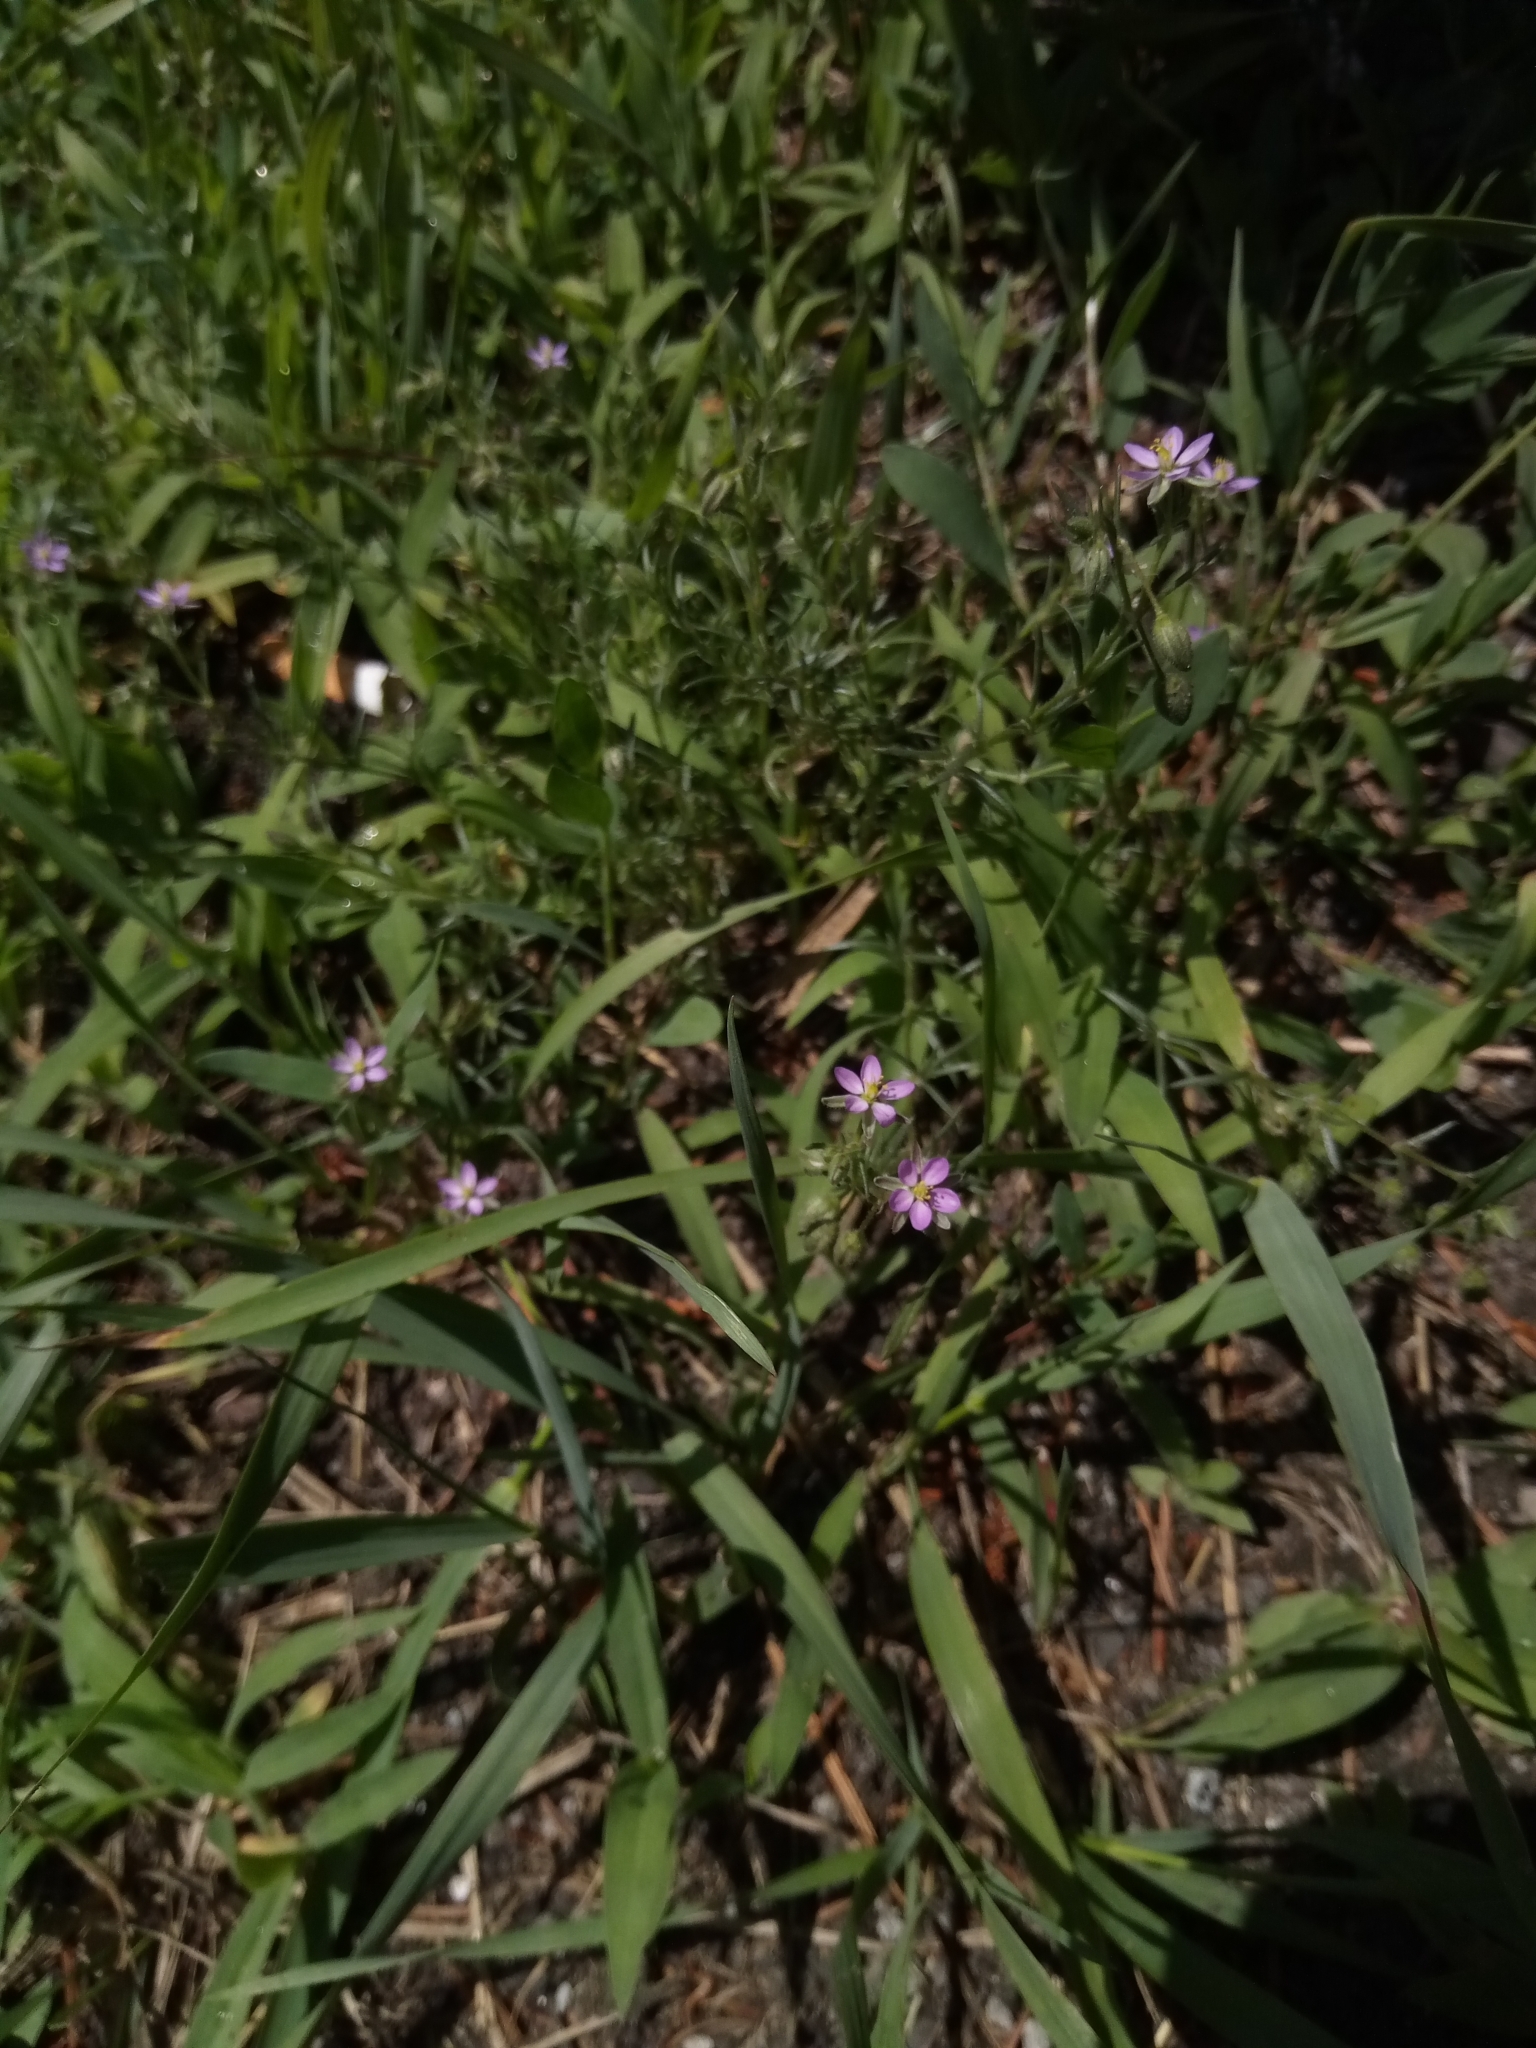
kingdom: Plantae
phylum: Tracheophyta
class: Magnoliopsida
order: Caryophyllales
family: Caryophyllaceae
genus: Spergularia
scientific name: Spergularia rubra
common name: Red sand-spurrey
